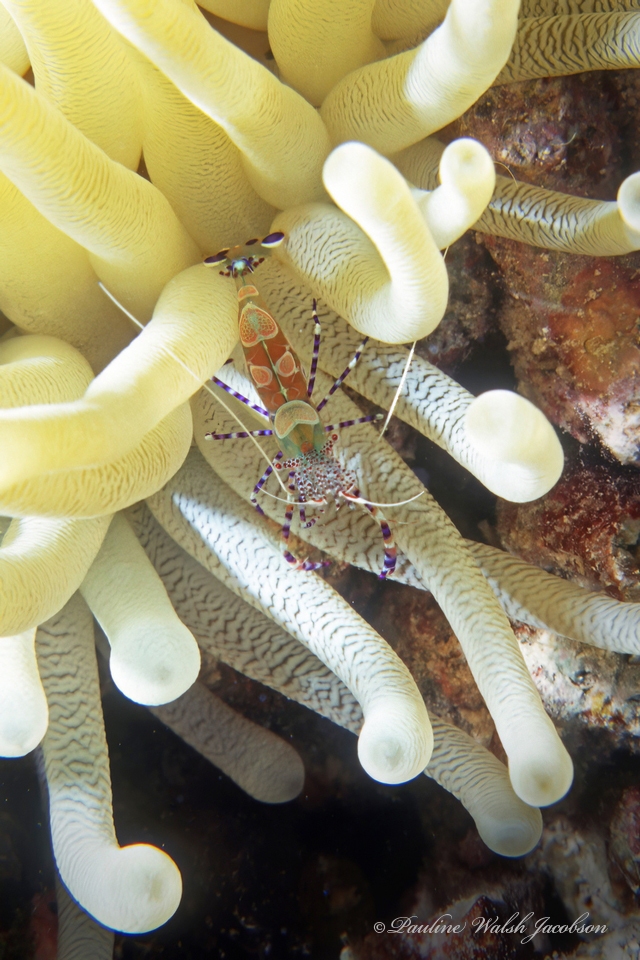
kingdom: Animalia
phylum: Arthropoda
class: Malacostraca
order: Decapoda
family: Palaemonidae
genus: Periclimenes
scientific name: Periclimenes yucatanicus
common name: Spotted cleaning shrimp
